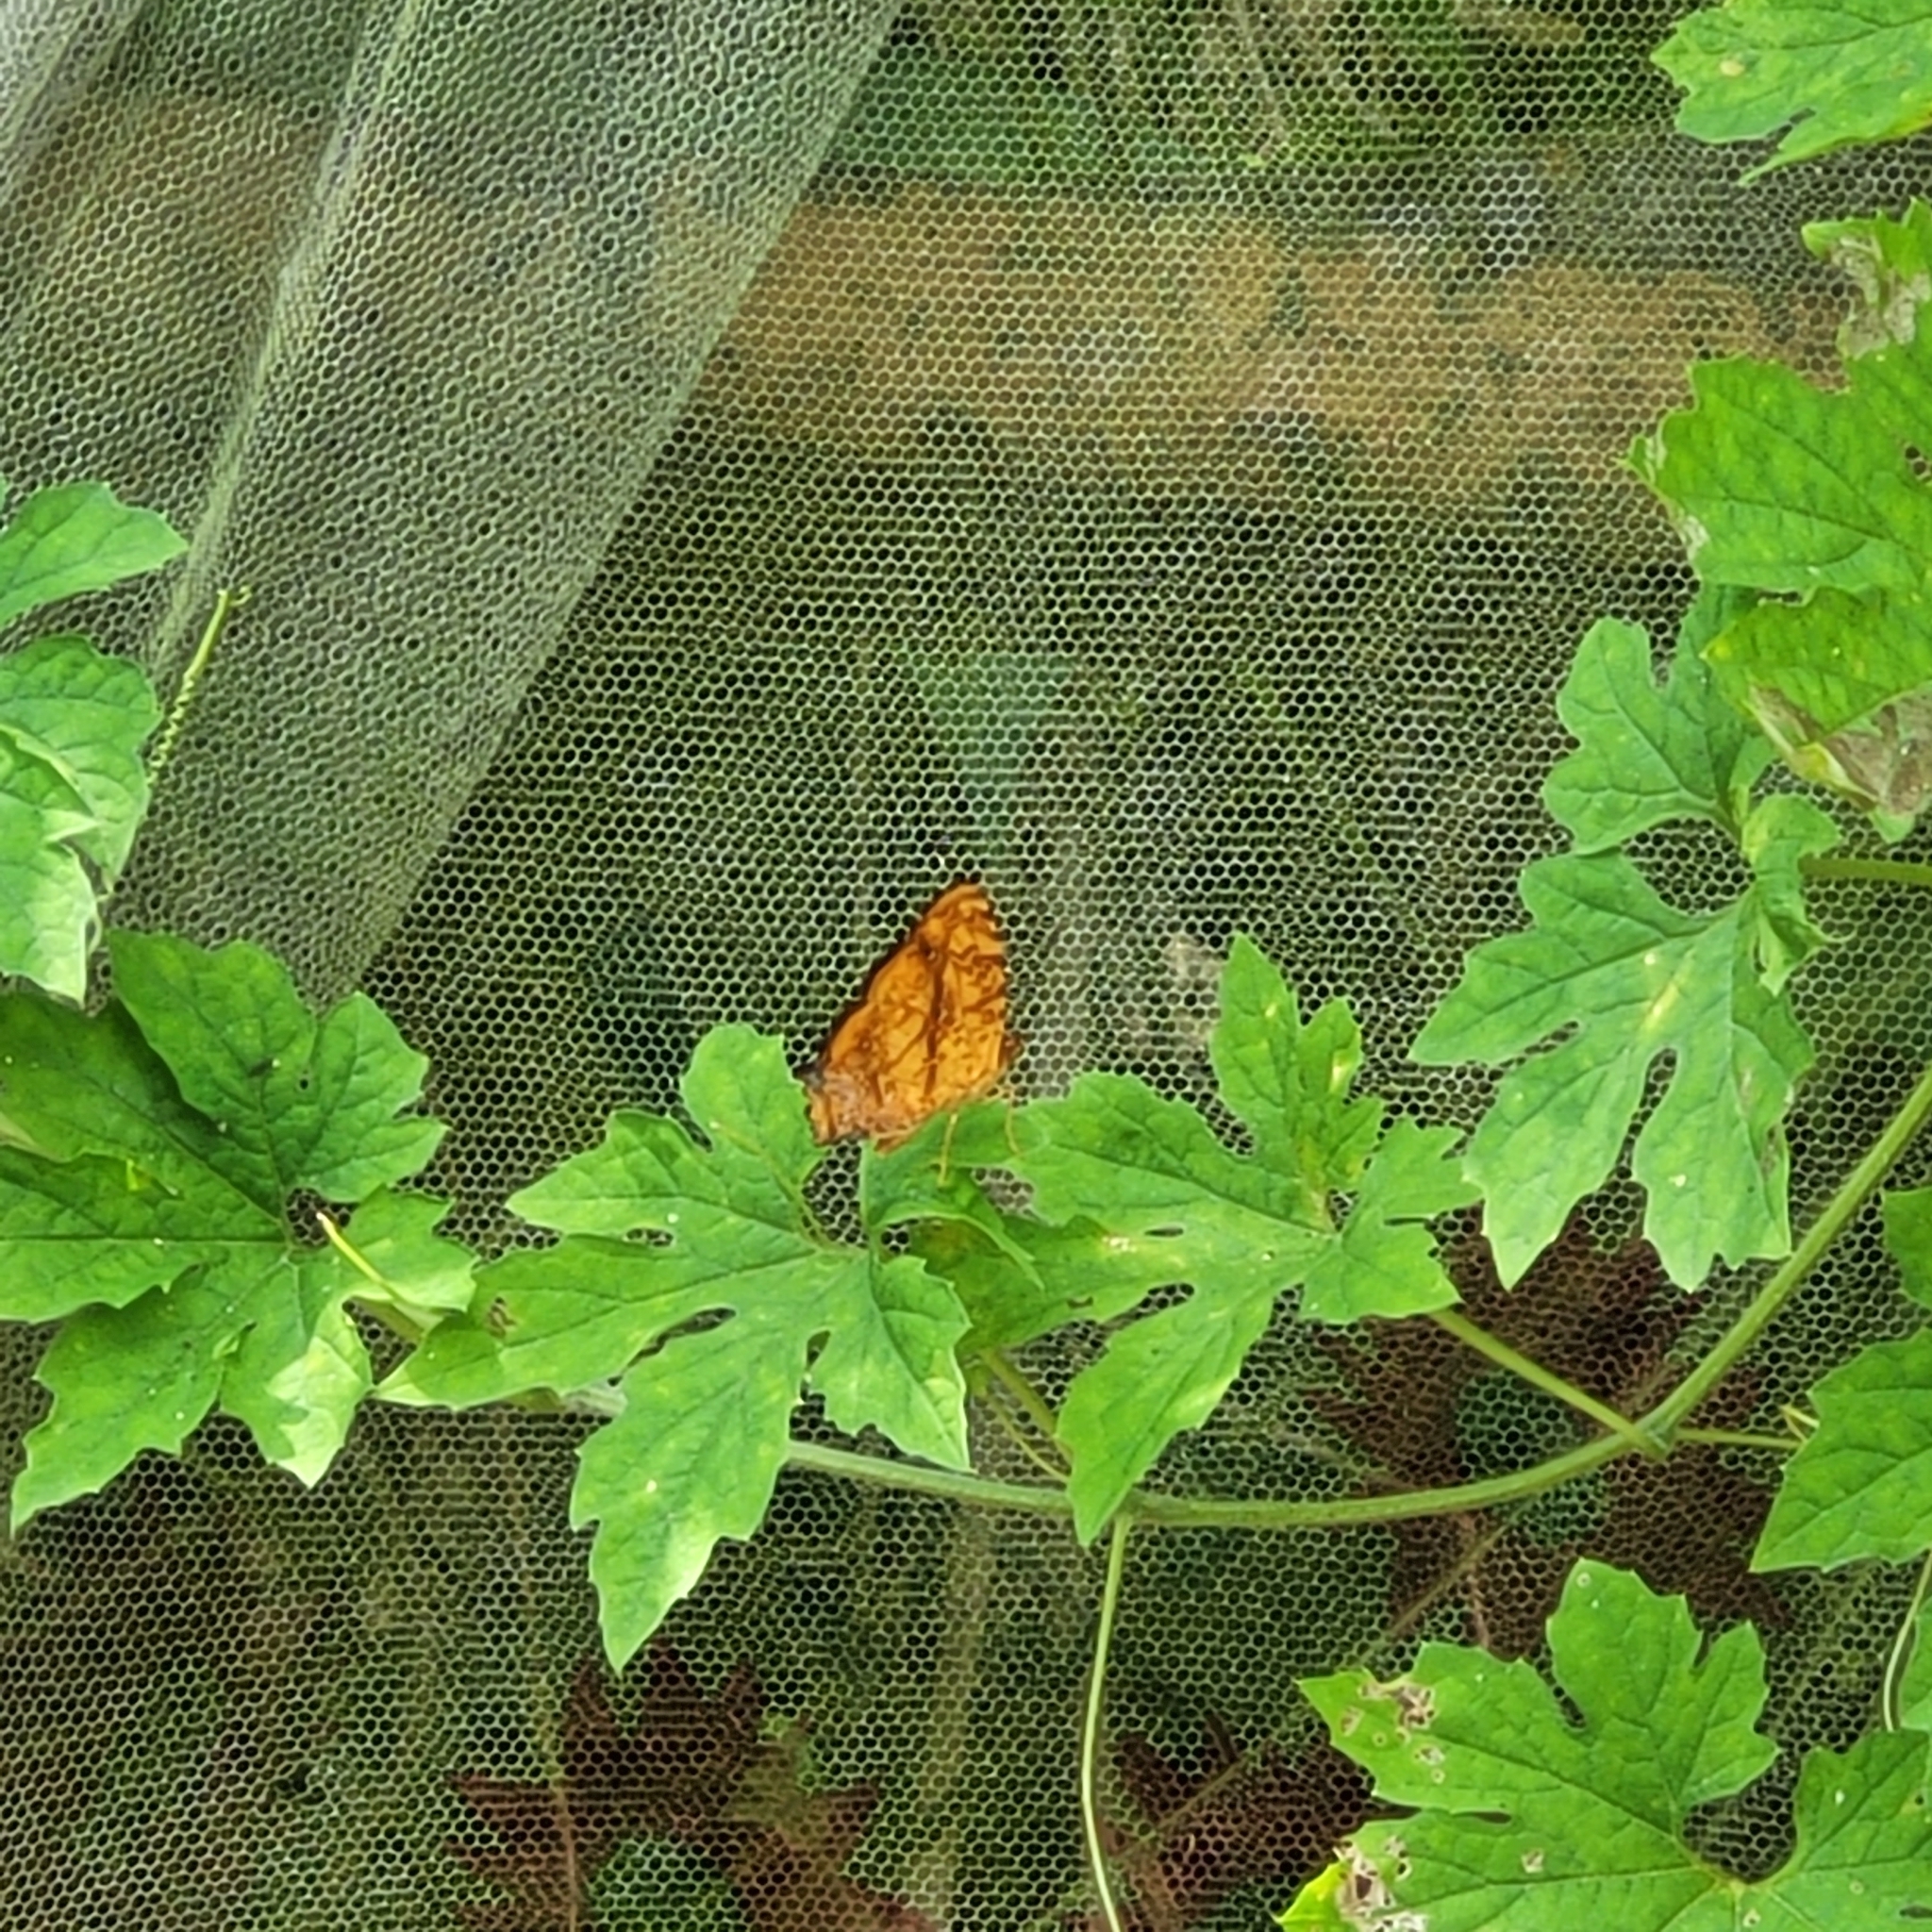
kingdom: Animalia
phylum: Arthropoda
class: Insecta
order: Lepidoptera
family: Nymphalidae
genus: Symbrenthia
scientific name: Symbrenthia hypselis
